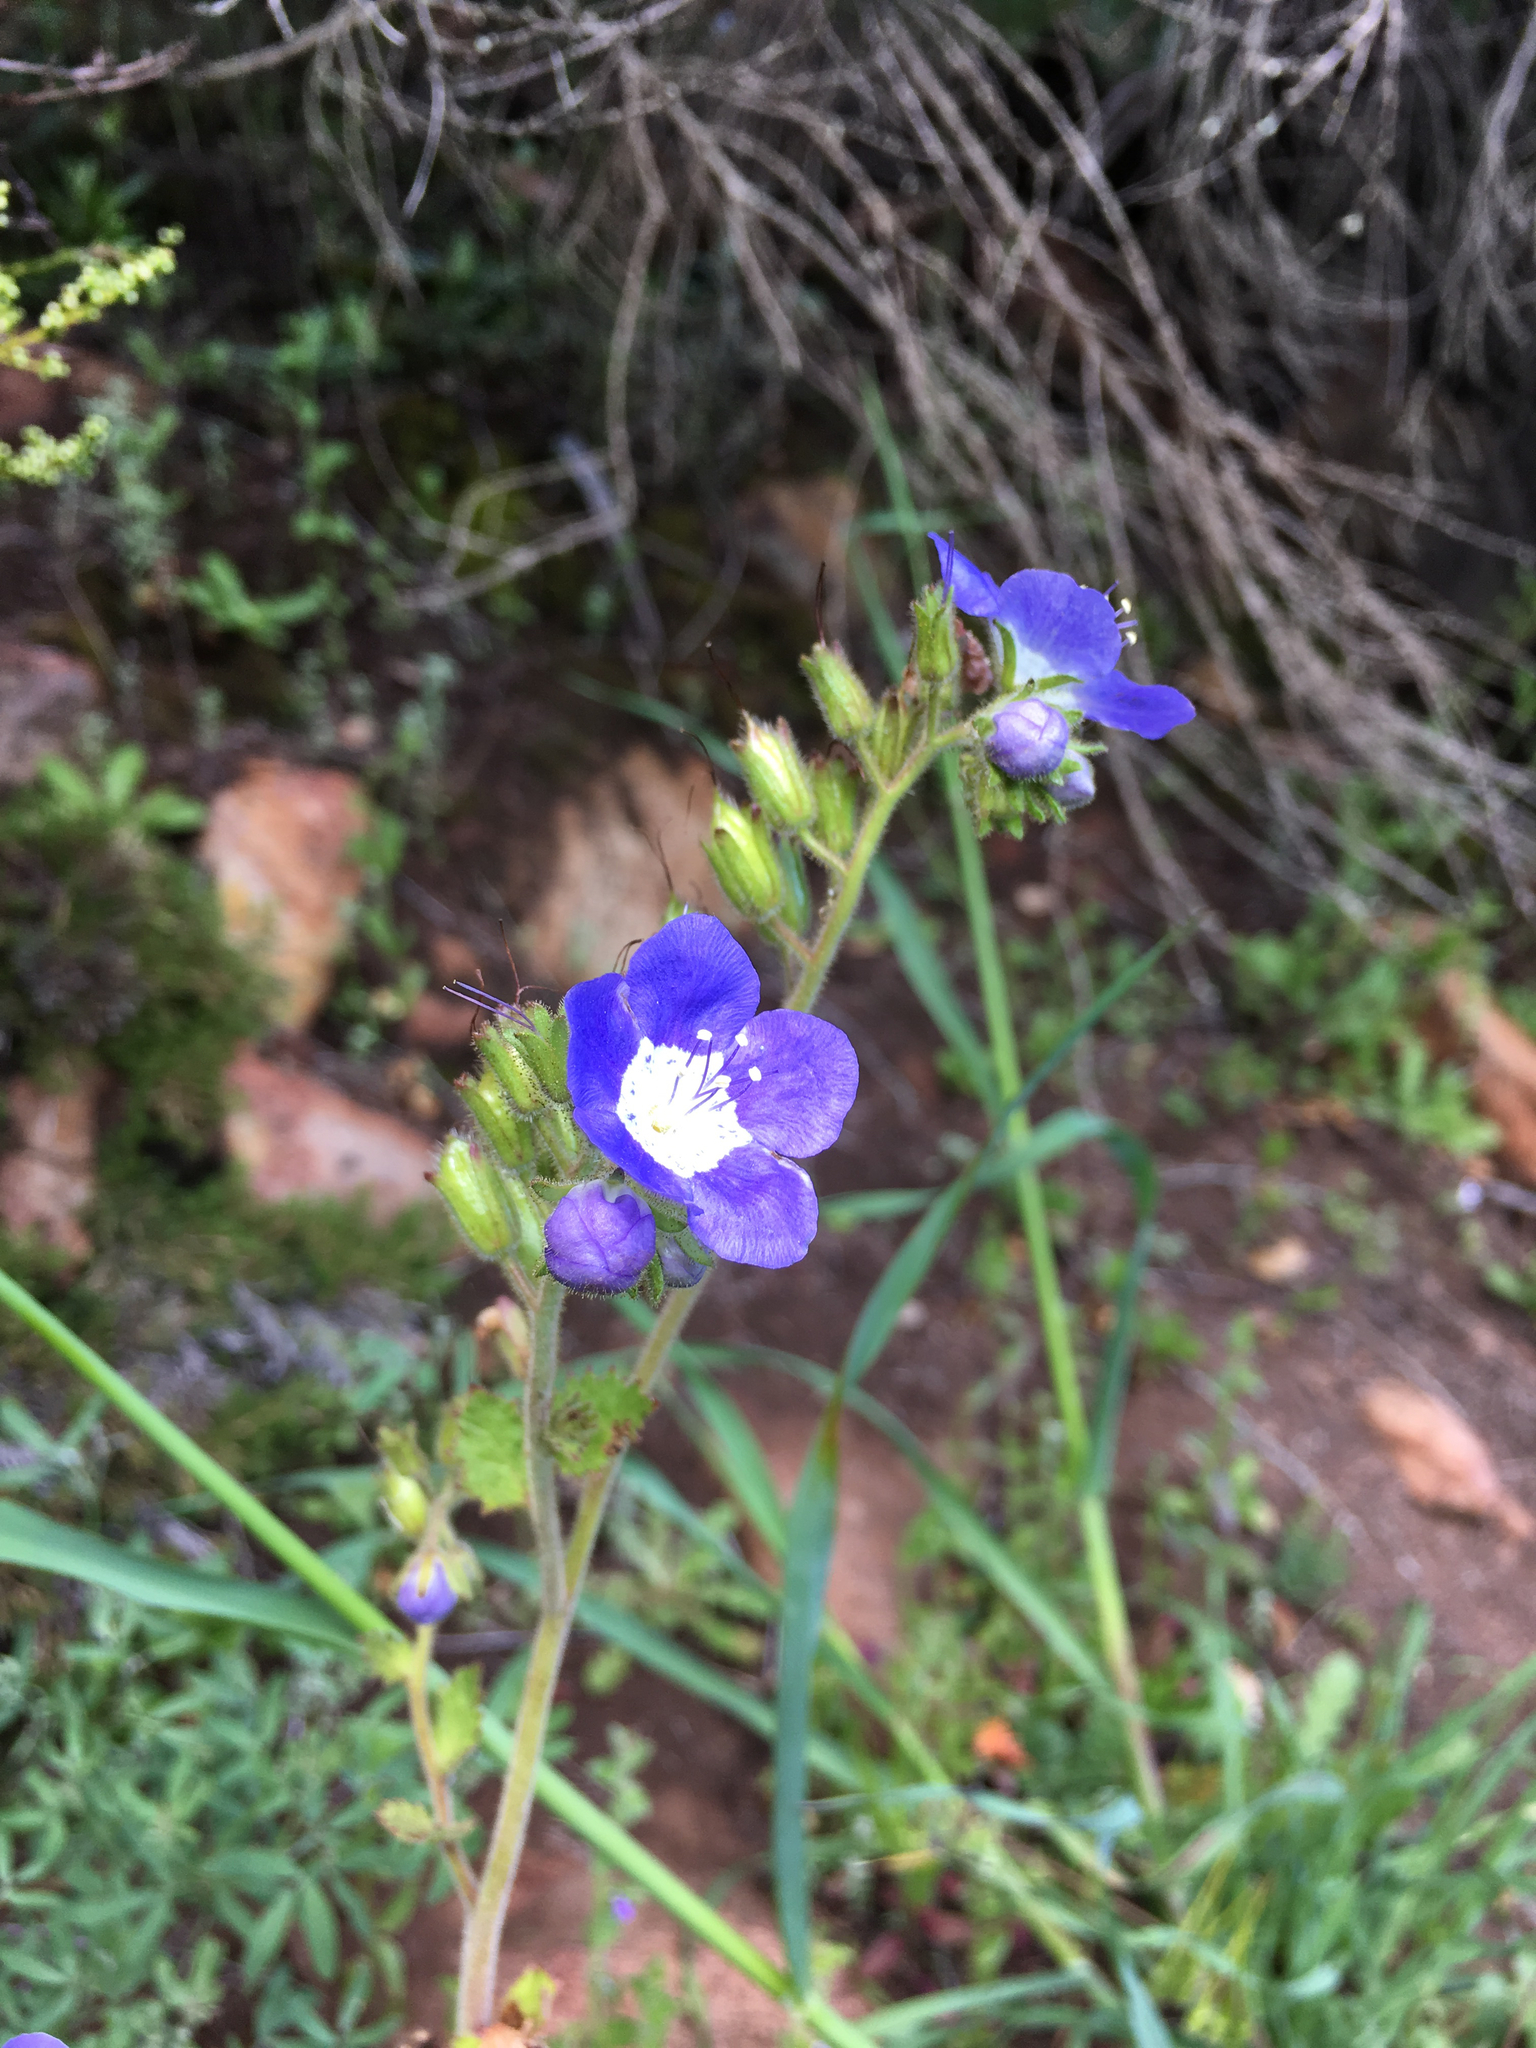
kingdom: Plantae
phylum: Tracheophyta
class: Magnoliopsida
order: Boraginales
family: Hydrophyllaceae
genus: Phacelia
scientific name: Phacelia viscida
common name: Sticky phacelia
